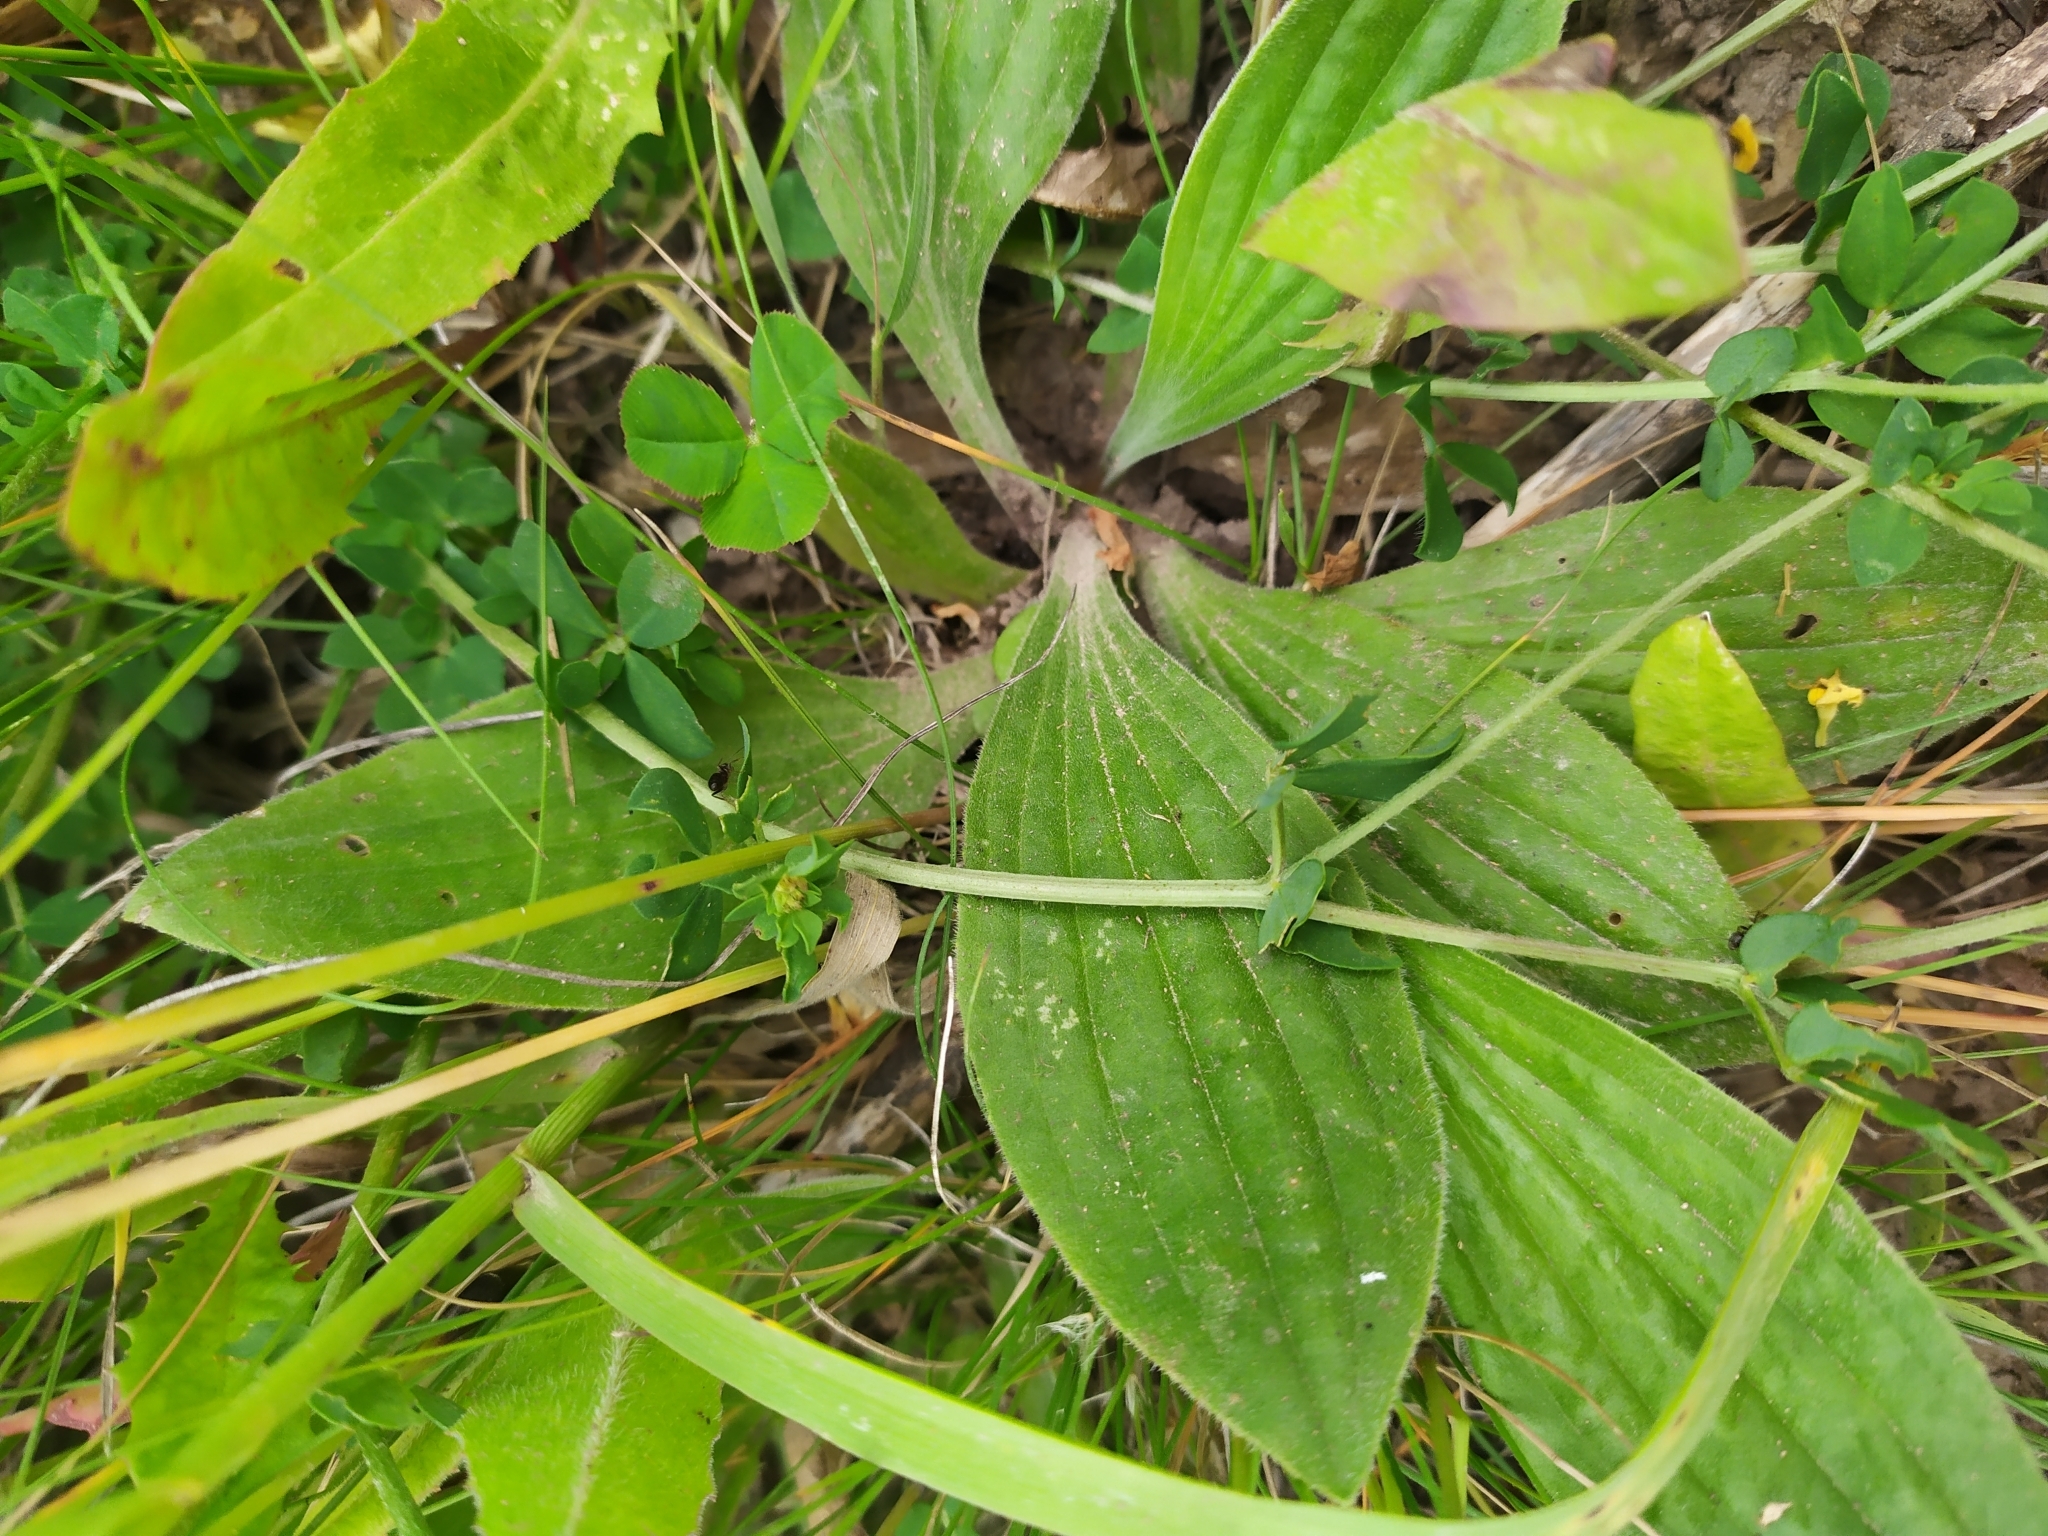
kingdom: Plantae
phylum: Tracheophyta
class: Magnoliopsida
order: Lamiales
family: Plantaginaceae
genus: Plantago
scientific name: Plantago media
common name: Hoary plantain
